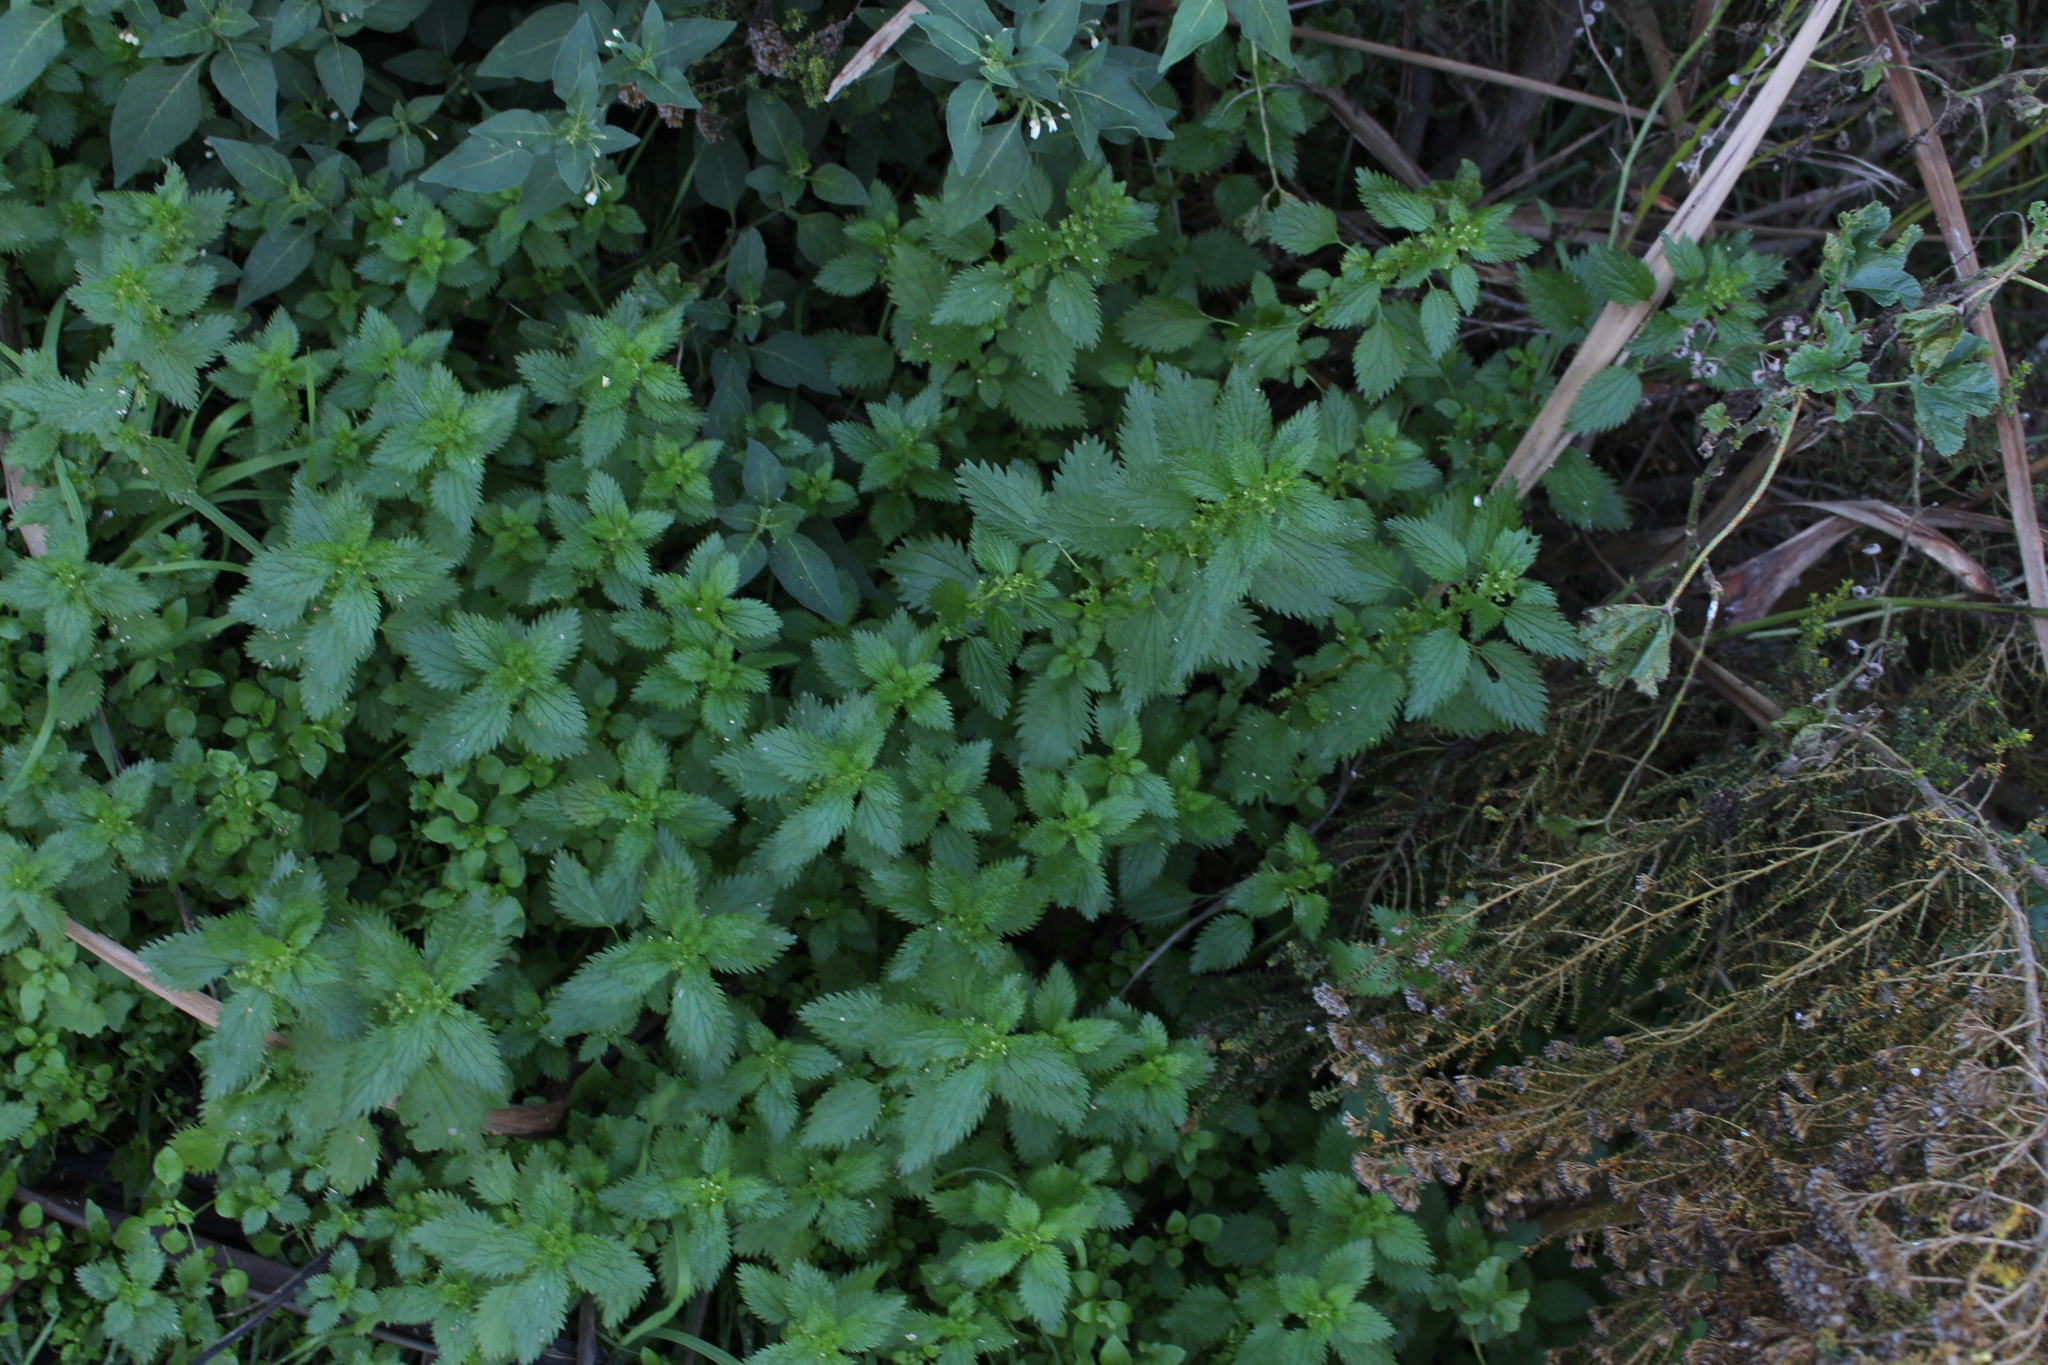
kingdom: Plantae
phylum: Tracheophyta
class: Magnoliopsida
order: Rosales
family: Urticaceae
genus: Urtica
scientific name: Urtica urens
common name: Dwarf nettle
